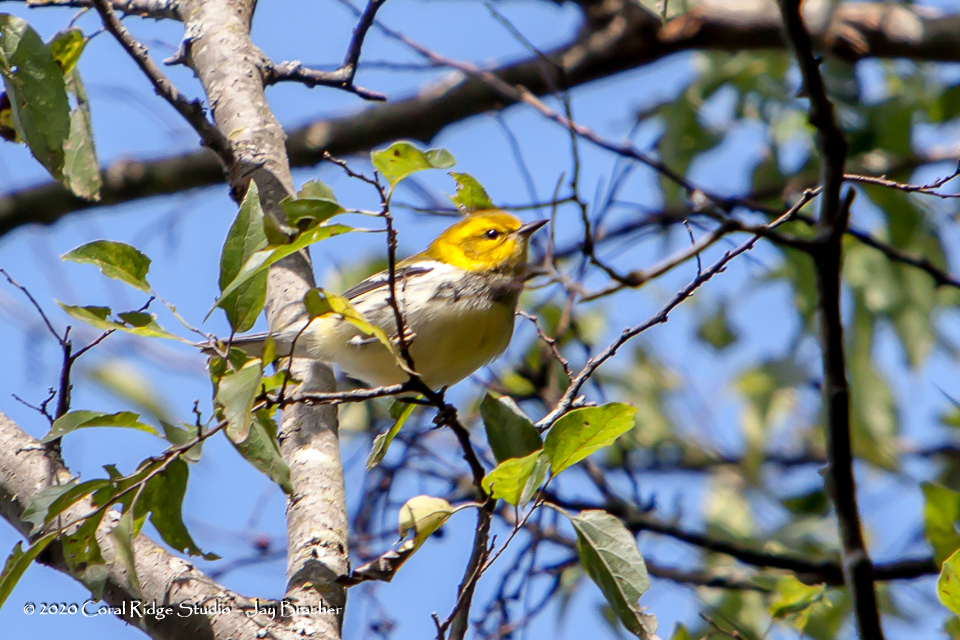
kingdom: Animalia
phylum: Chordata
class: Aves
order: Passeriformes
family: Parulidae
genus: Setophaga
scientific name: Setophaga virens
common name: Black-throated green warbler
